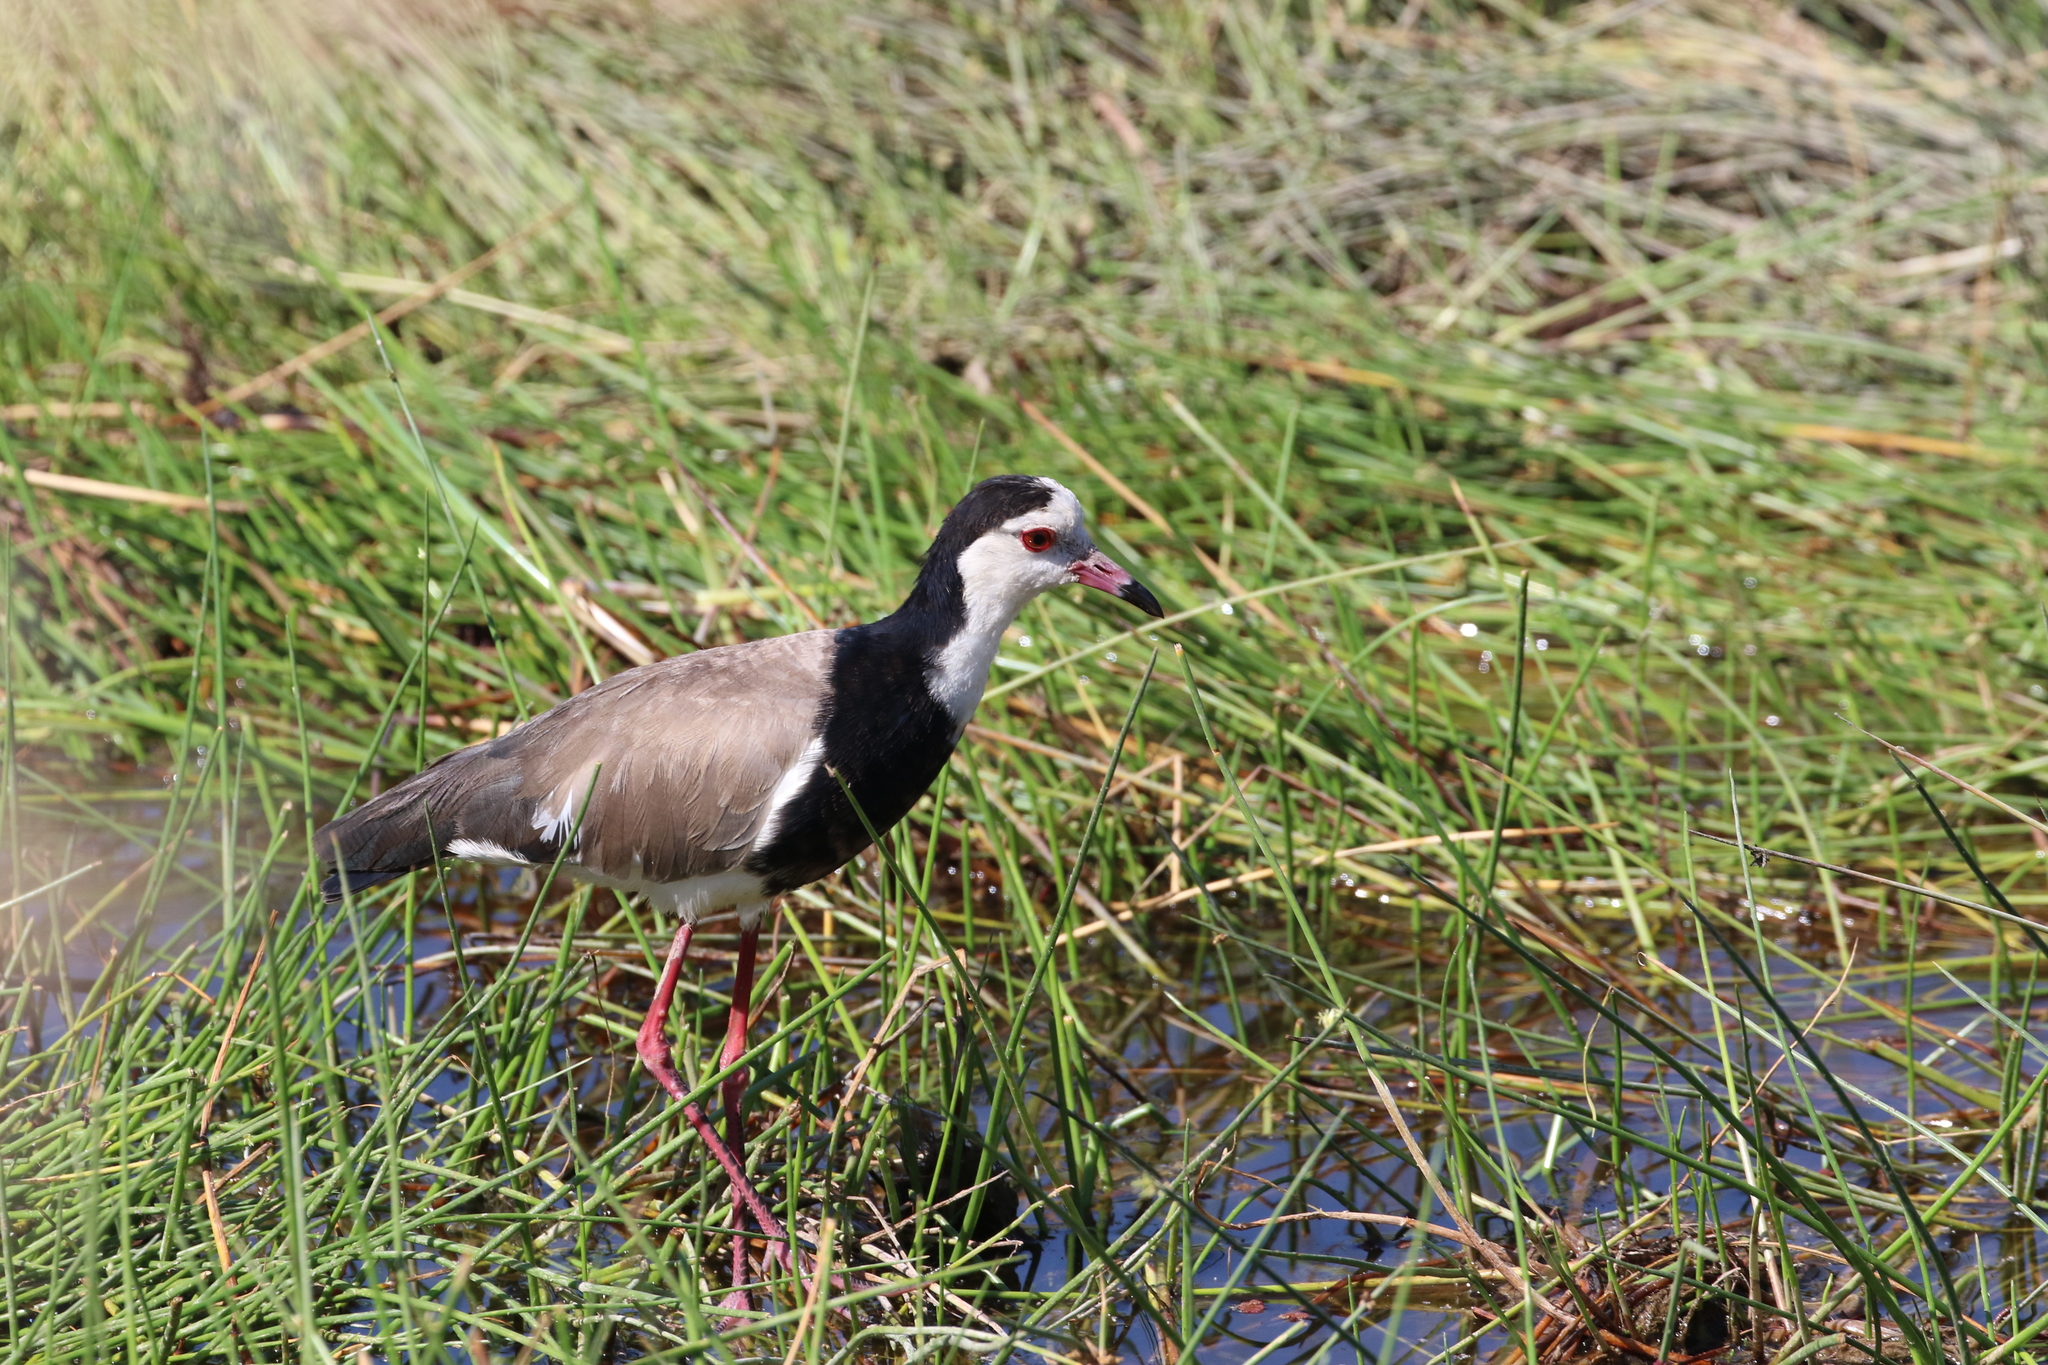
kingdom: Animalia
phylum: Chordata
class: Aves
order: Charadriiformes
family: Charadriidae
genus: Vanellus
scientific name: Vanellus crassirostris
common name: Long-toed lapwing
